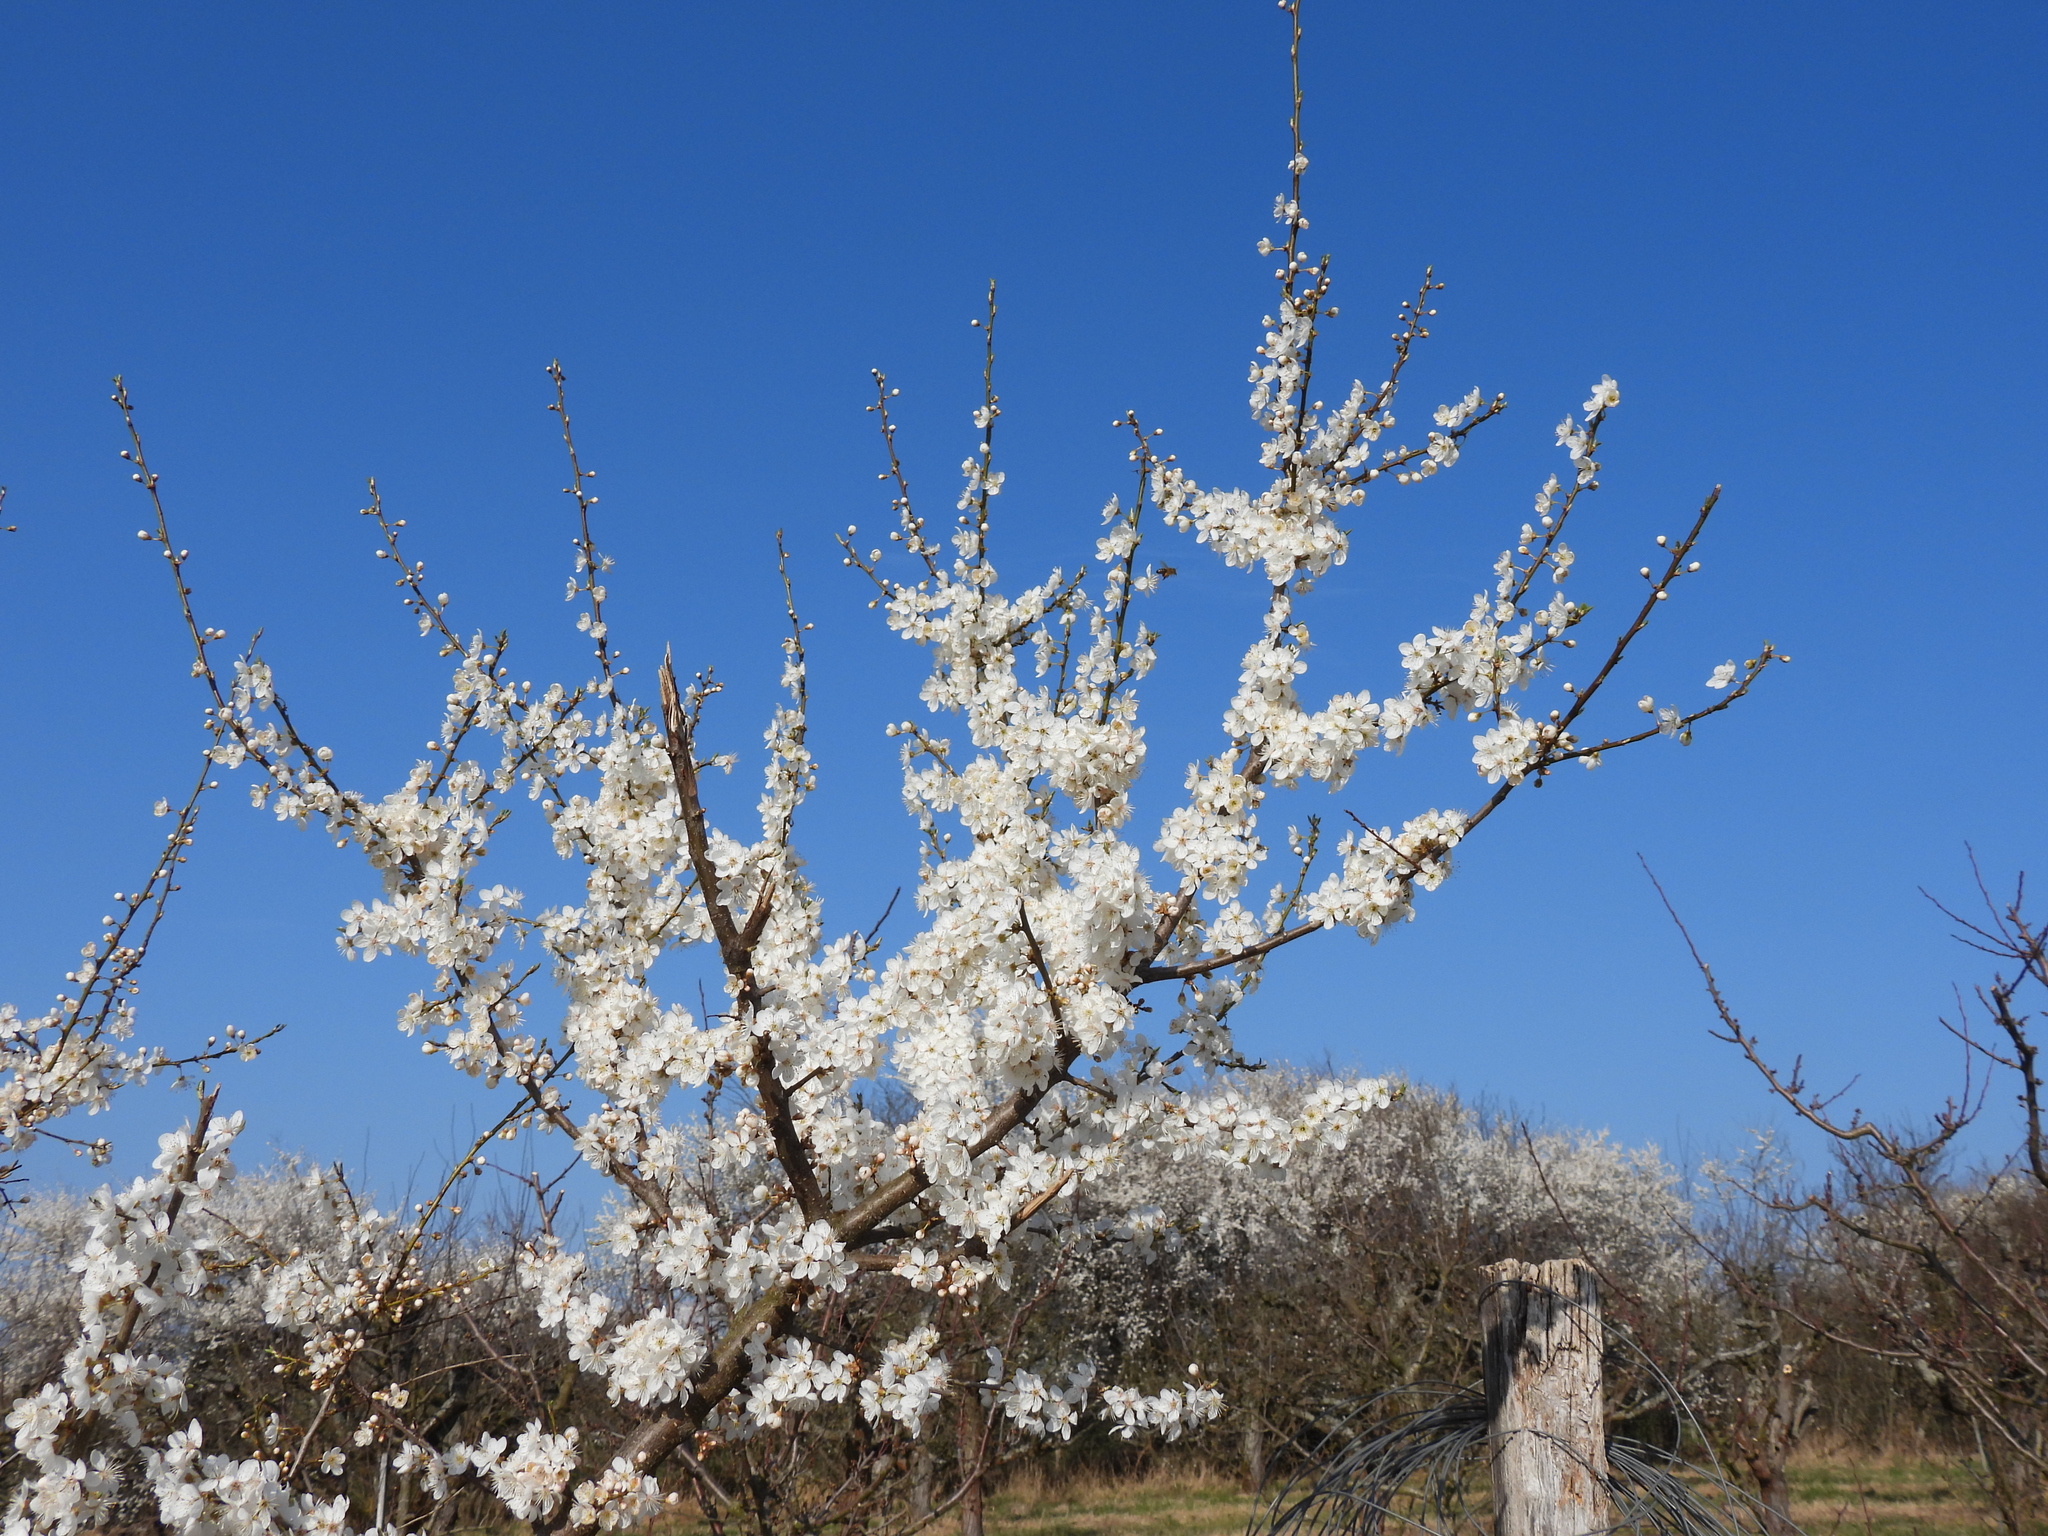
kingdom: Plantae
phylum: Tracheophyta
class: Magnoliopsida
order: Rosales
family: Rosaceae
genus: Prunus
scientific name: Prunus cerasifera
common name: Cherry plum
